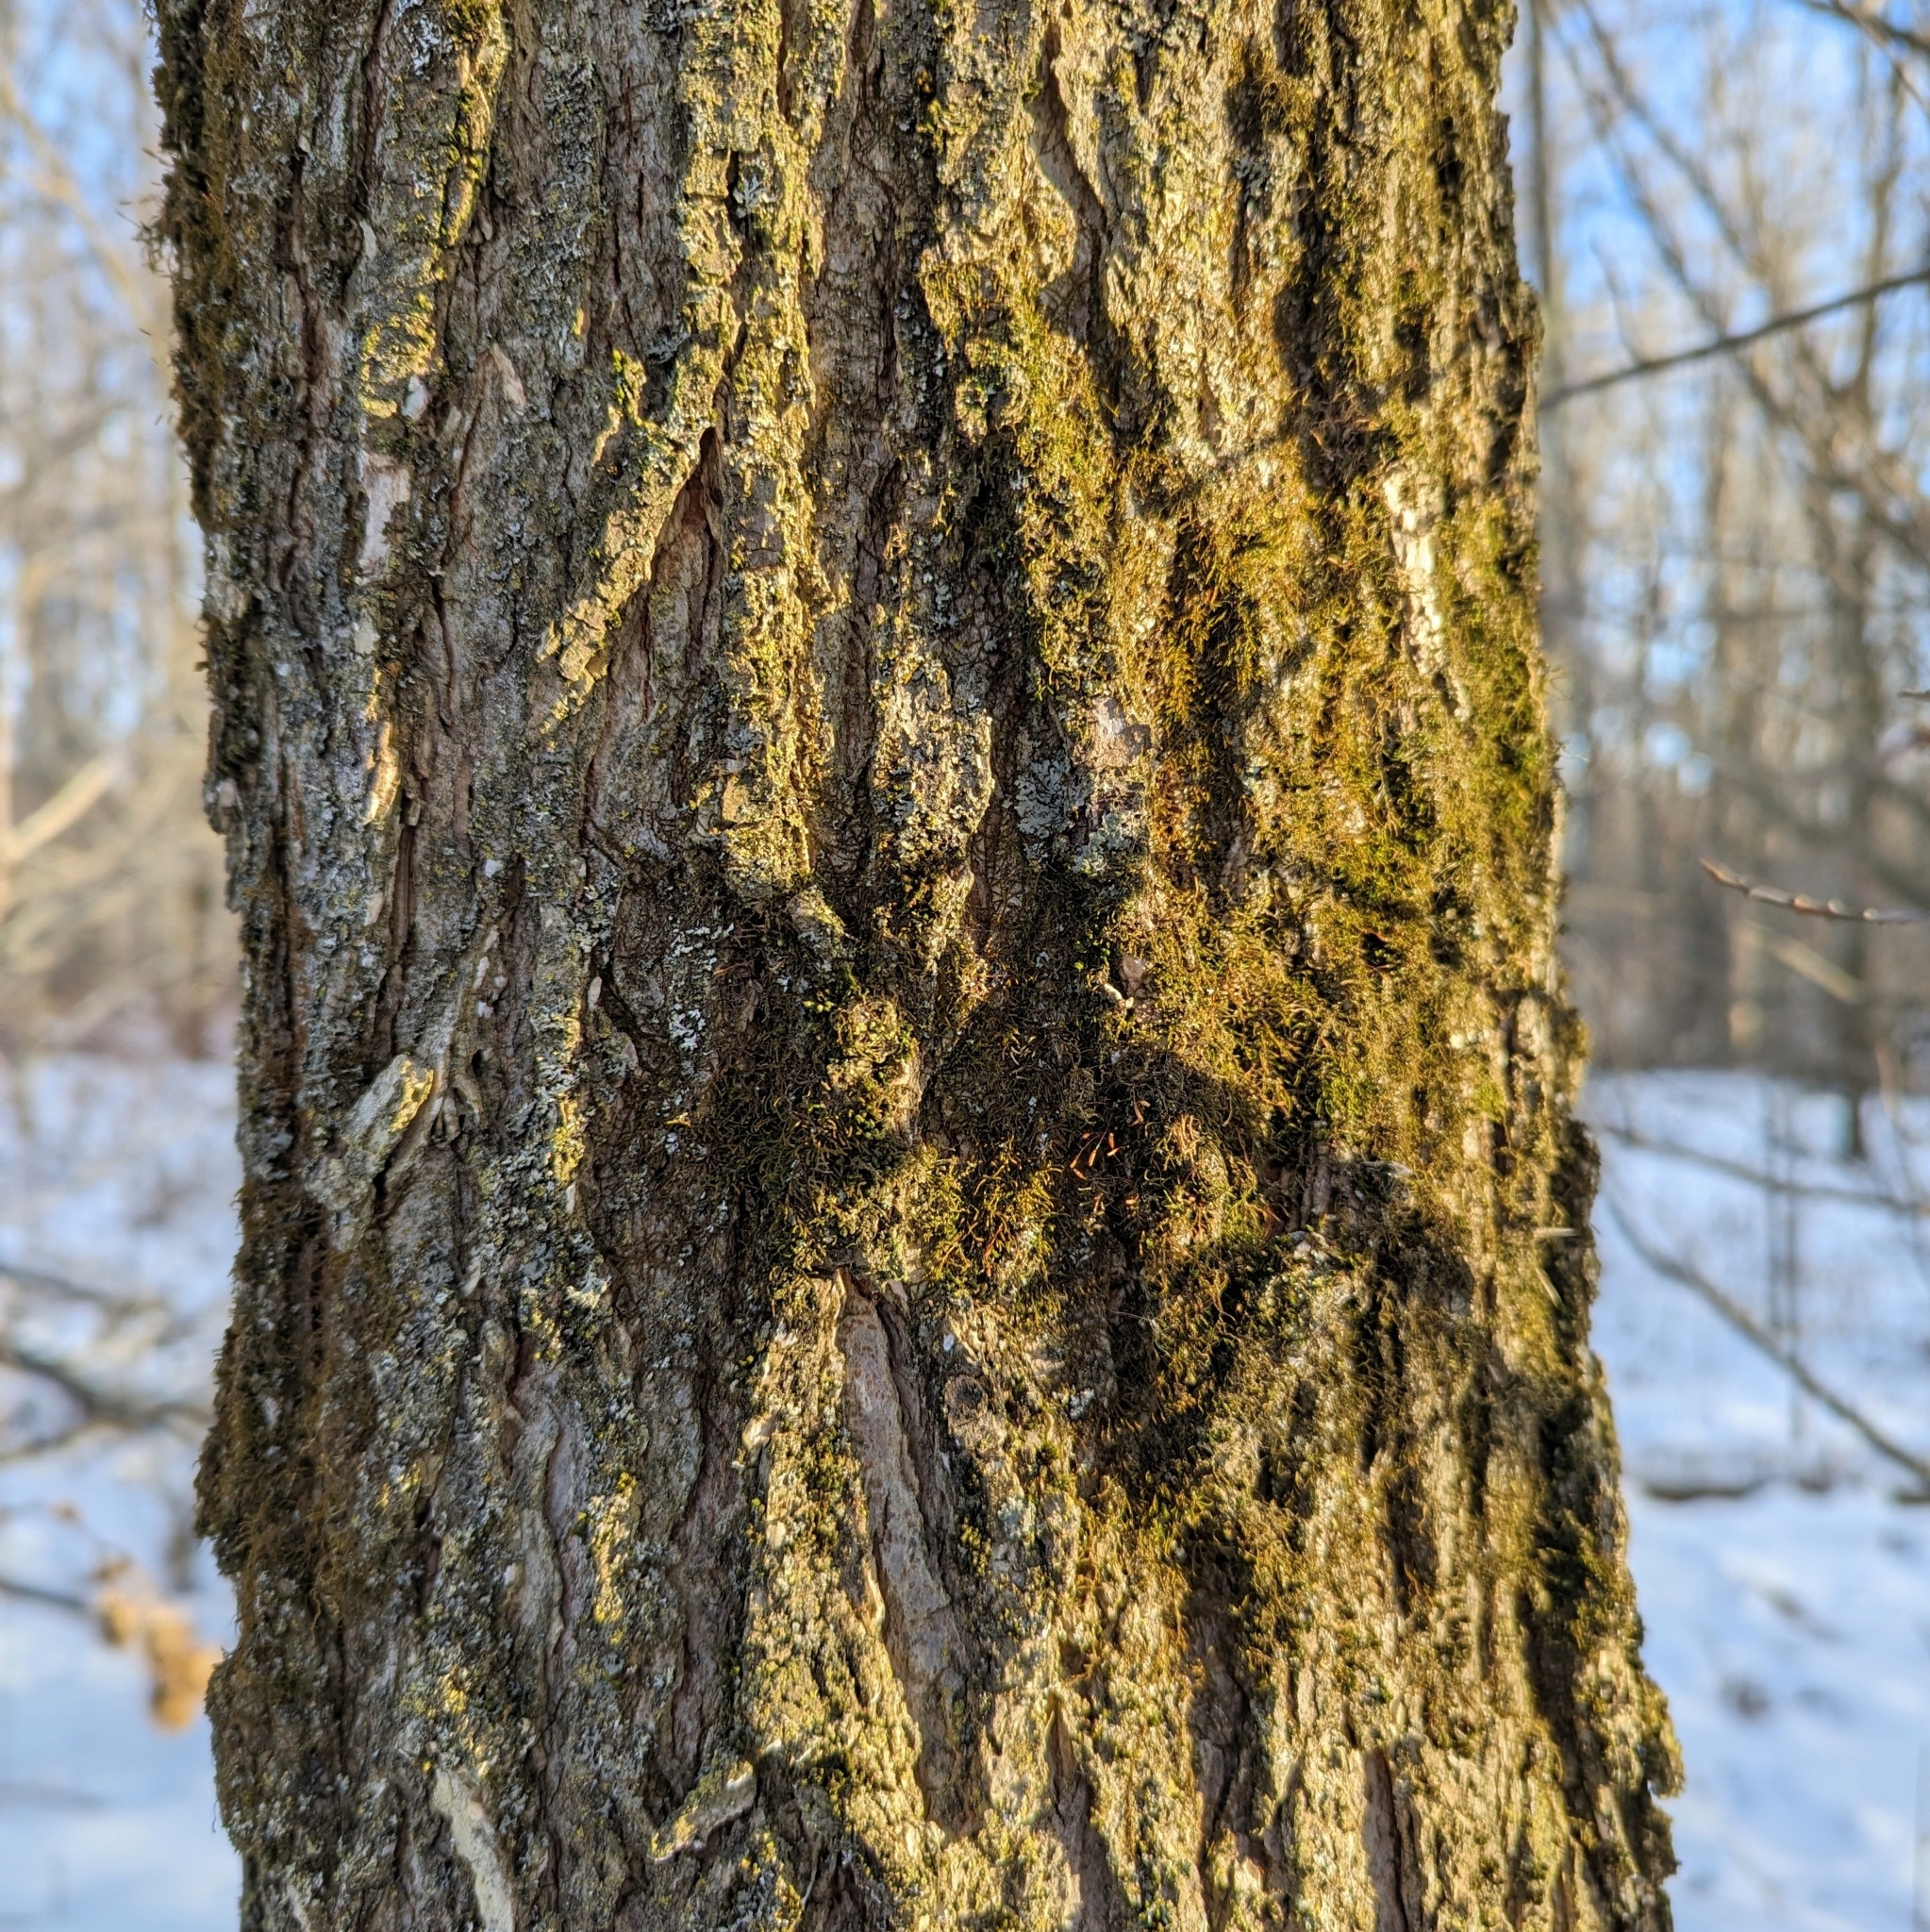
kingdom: Plantae
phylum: Tracheophyta
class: Magnoliopsida
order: Rosales
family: Ulmaceae
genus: Ulmus
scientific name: Ulmus
